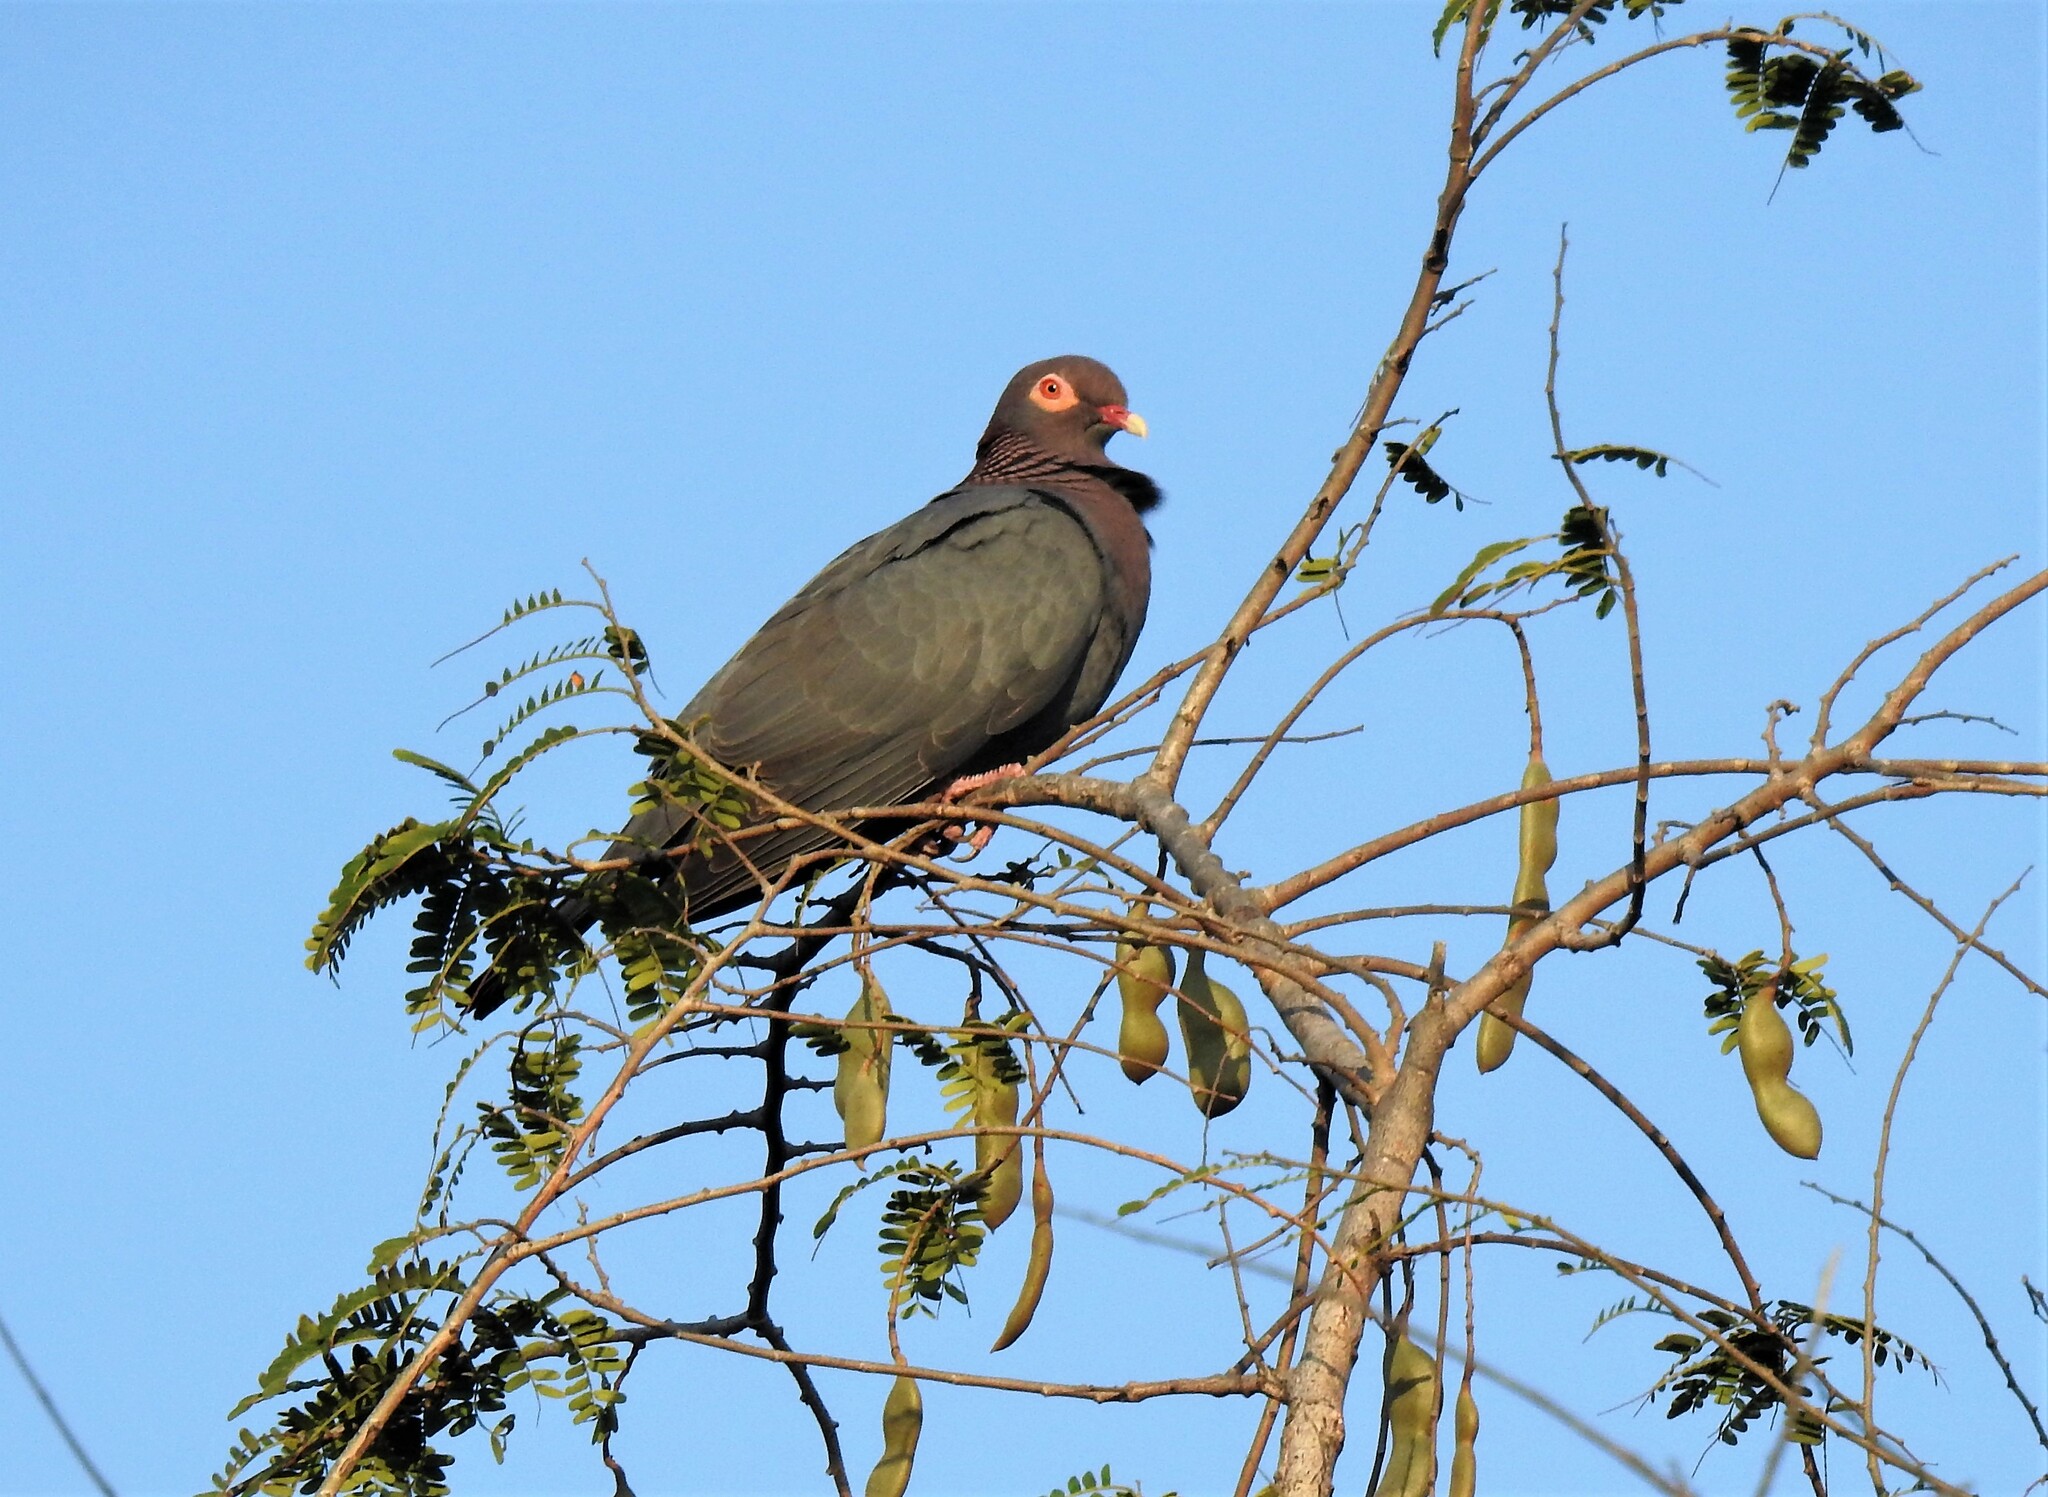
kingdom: Animalia
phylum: Chordata
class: Aves
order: Columbiformes
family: Columbidae
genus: Patagioenas
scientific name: Patagioenas squamosa
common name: Scaly-naped pigeon
